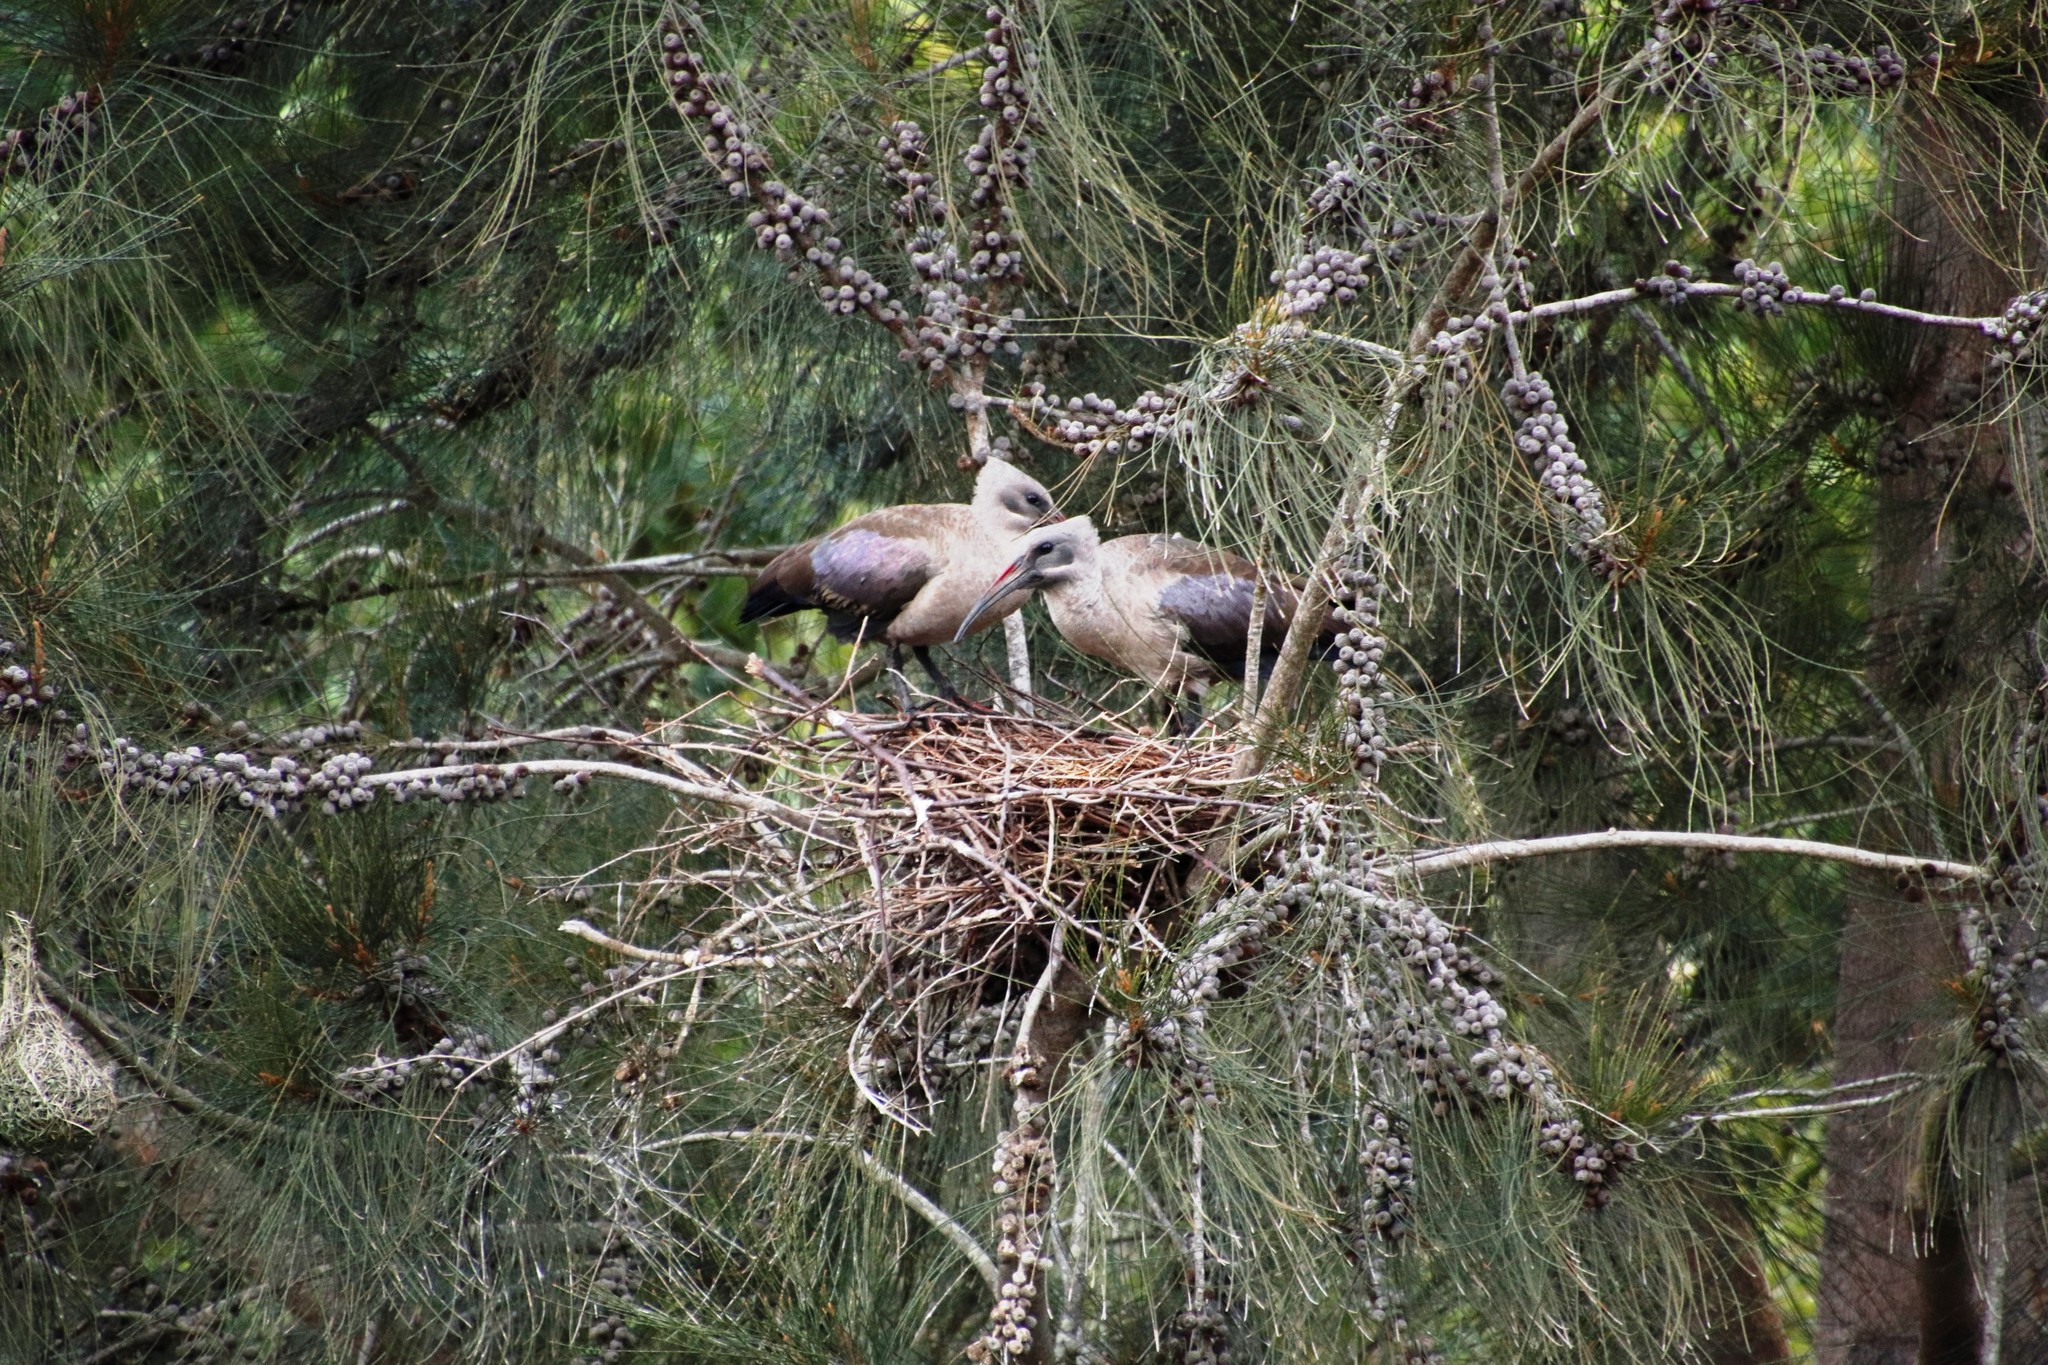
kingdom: Animalia
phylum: Chordata
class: Aves
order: Pelecaniformes
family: Threskiornithidae
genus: Bostrychia
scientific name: Bostrychia hagedash
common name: Hadada ibis
